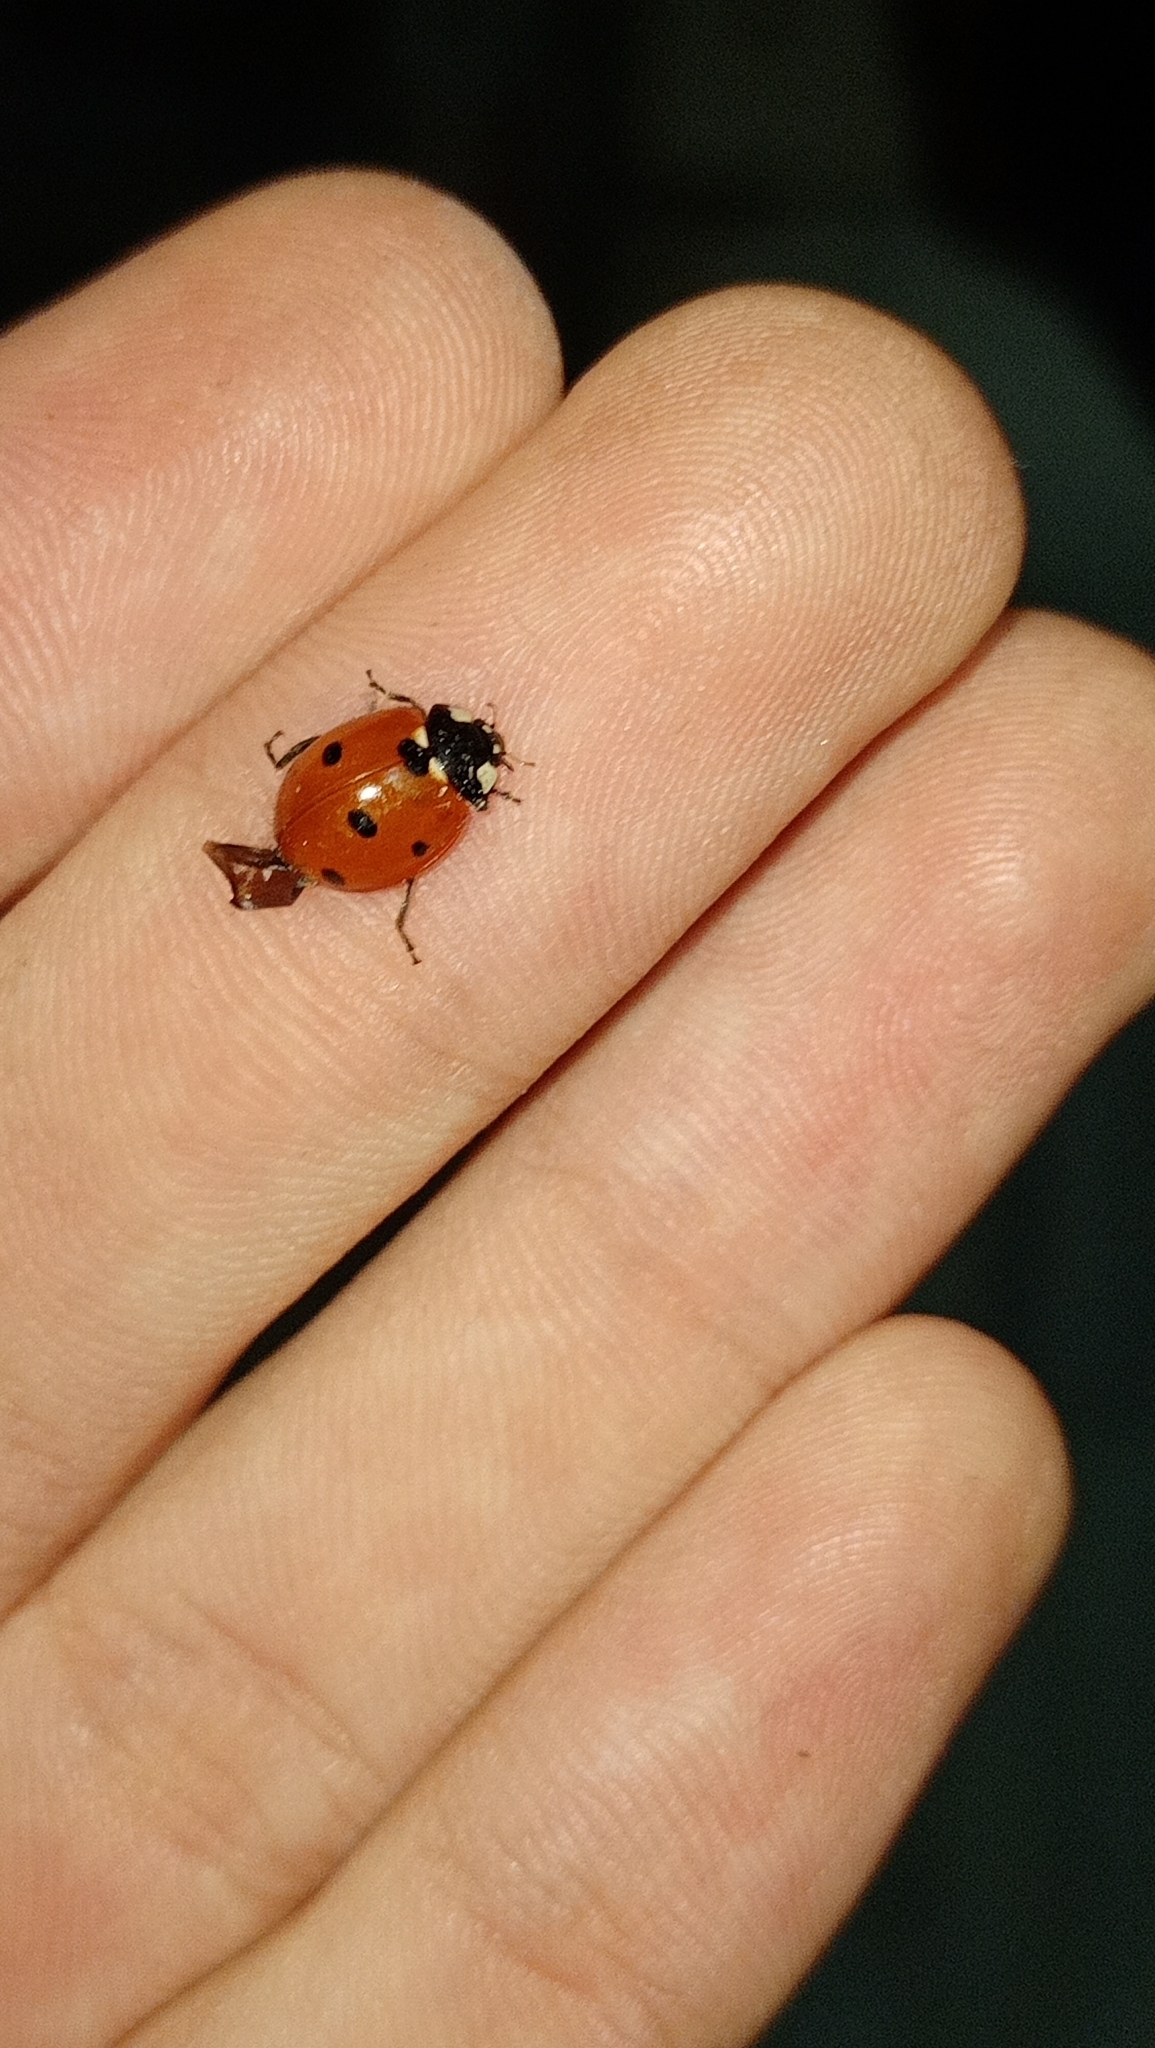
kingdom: Animalia
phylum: Arthropoda
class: Insecta
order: Coleoptera
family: Coccinellidae
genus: Coccinella
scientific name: Coccinella septempunctata
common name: Sevenspotted lady beetle
